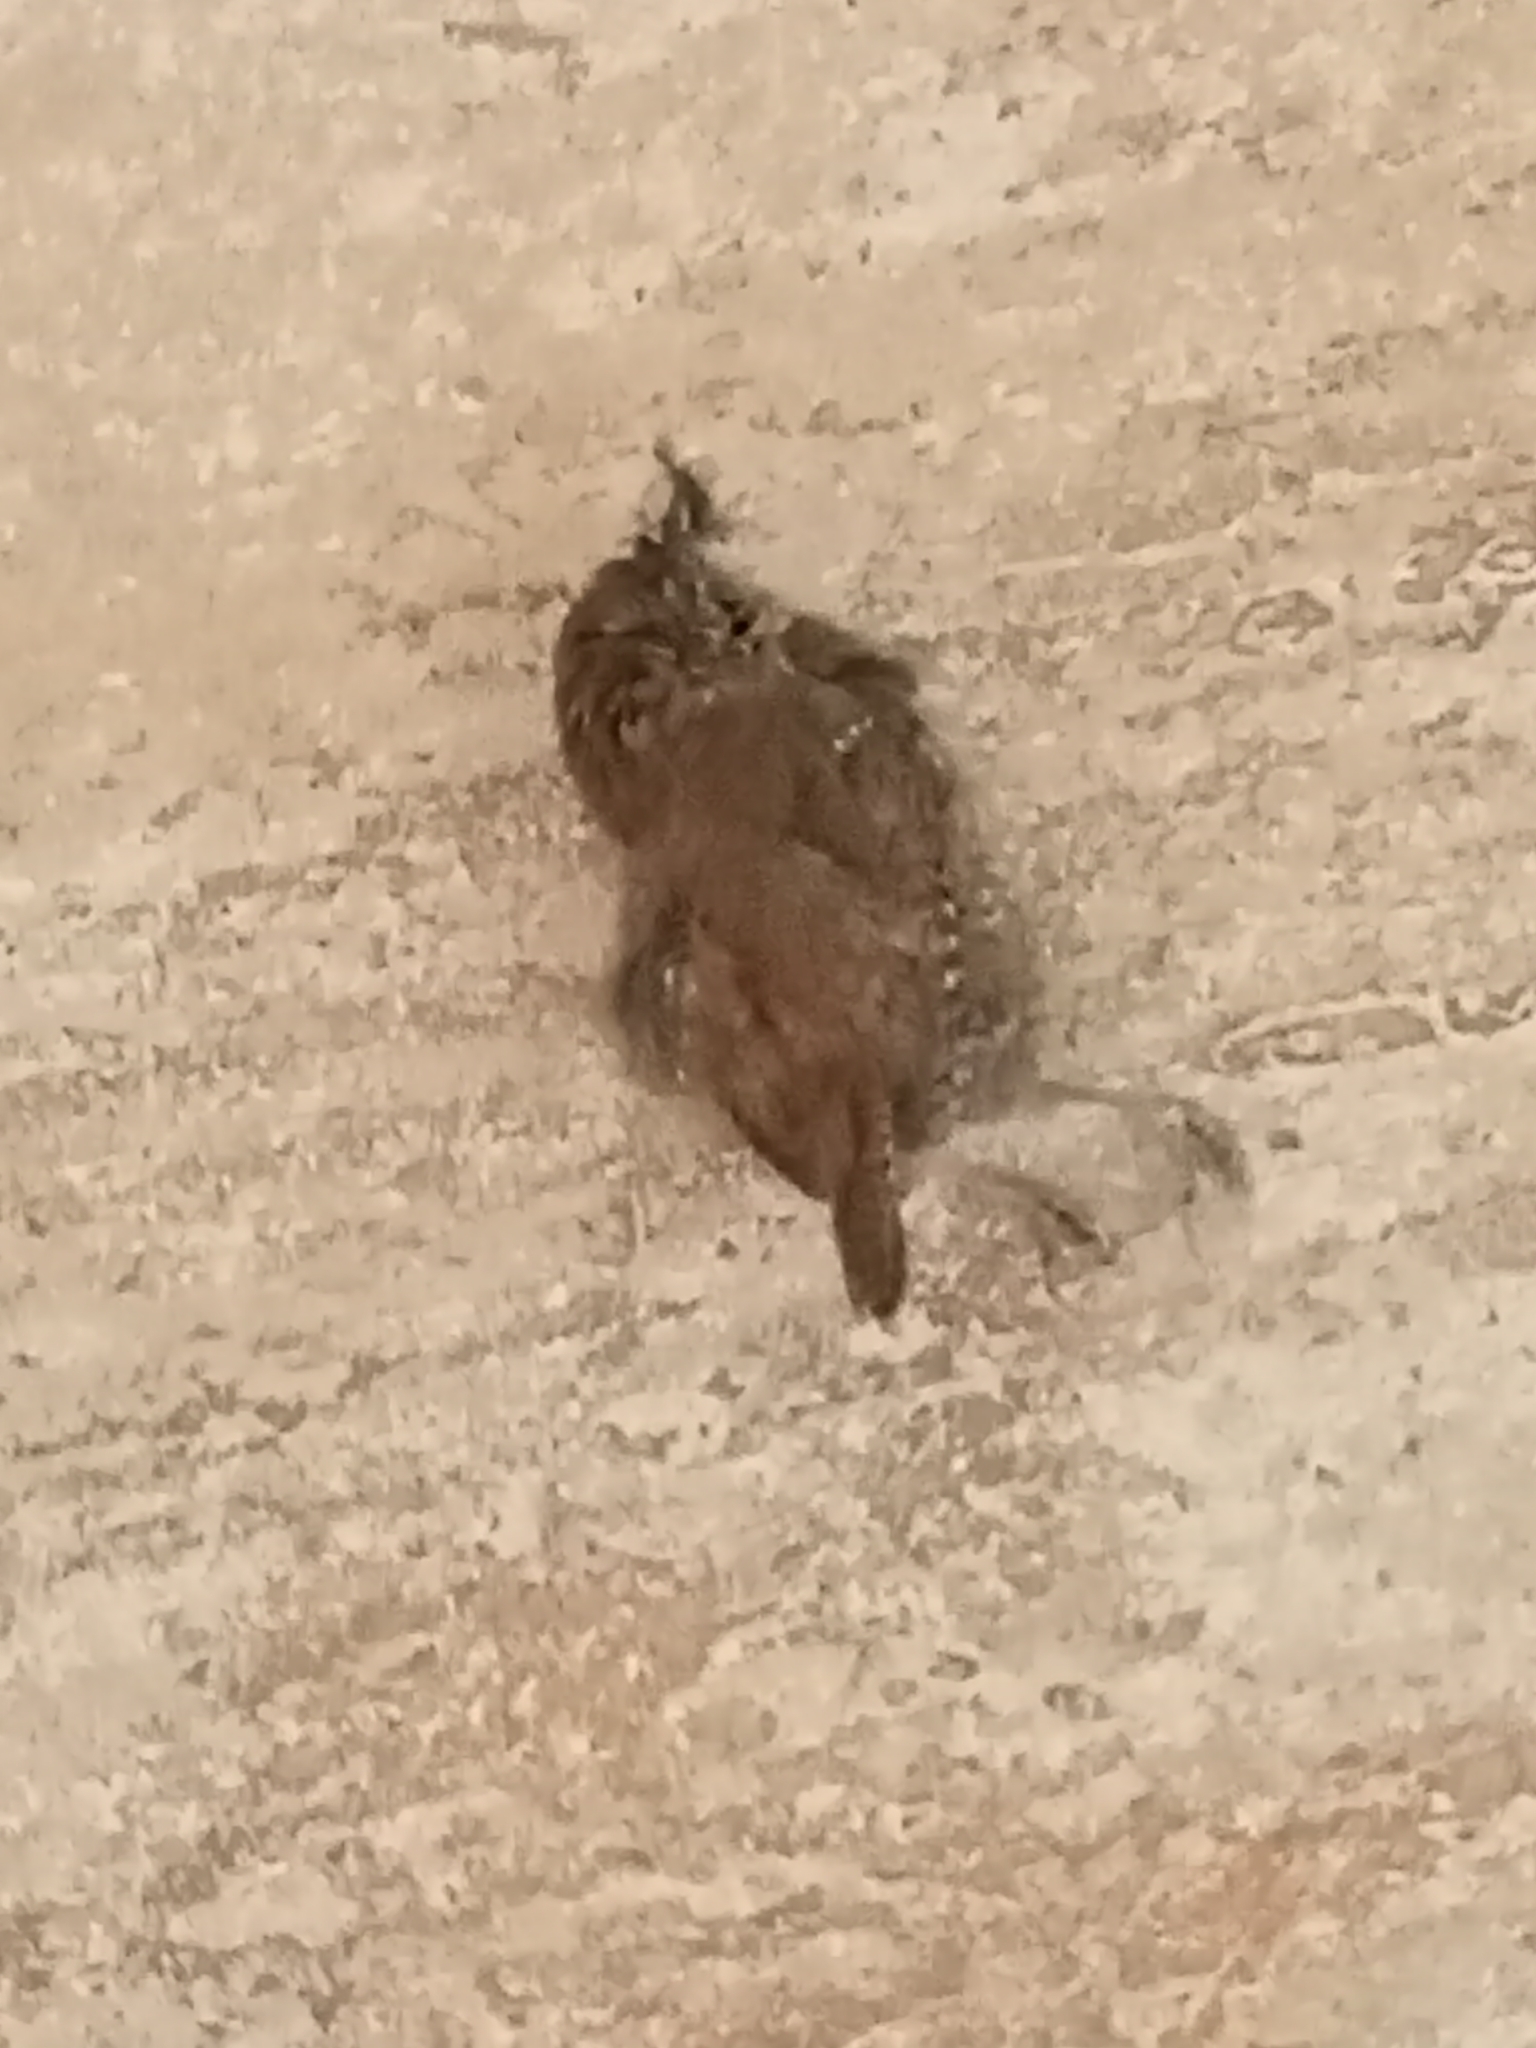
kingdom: Animalia
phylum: Chordata
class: Aves
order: Passeriformes
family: Troglodytidae
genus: Troglodytes
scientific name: Troglodytes troglodytes
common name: Eurasian wren
